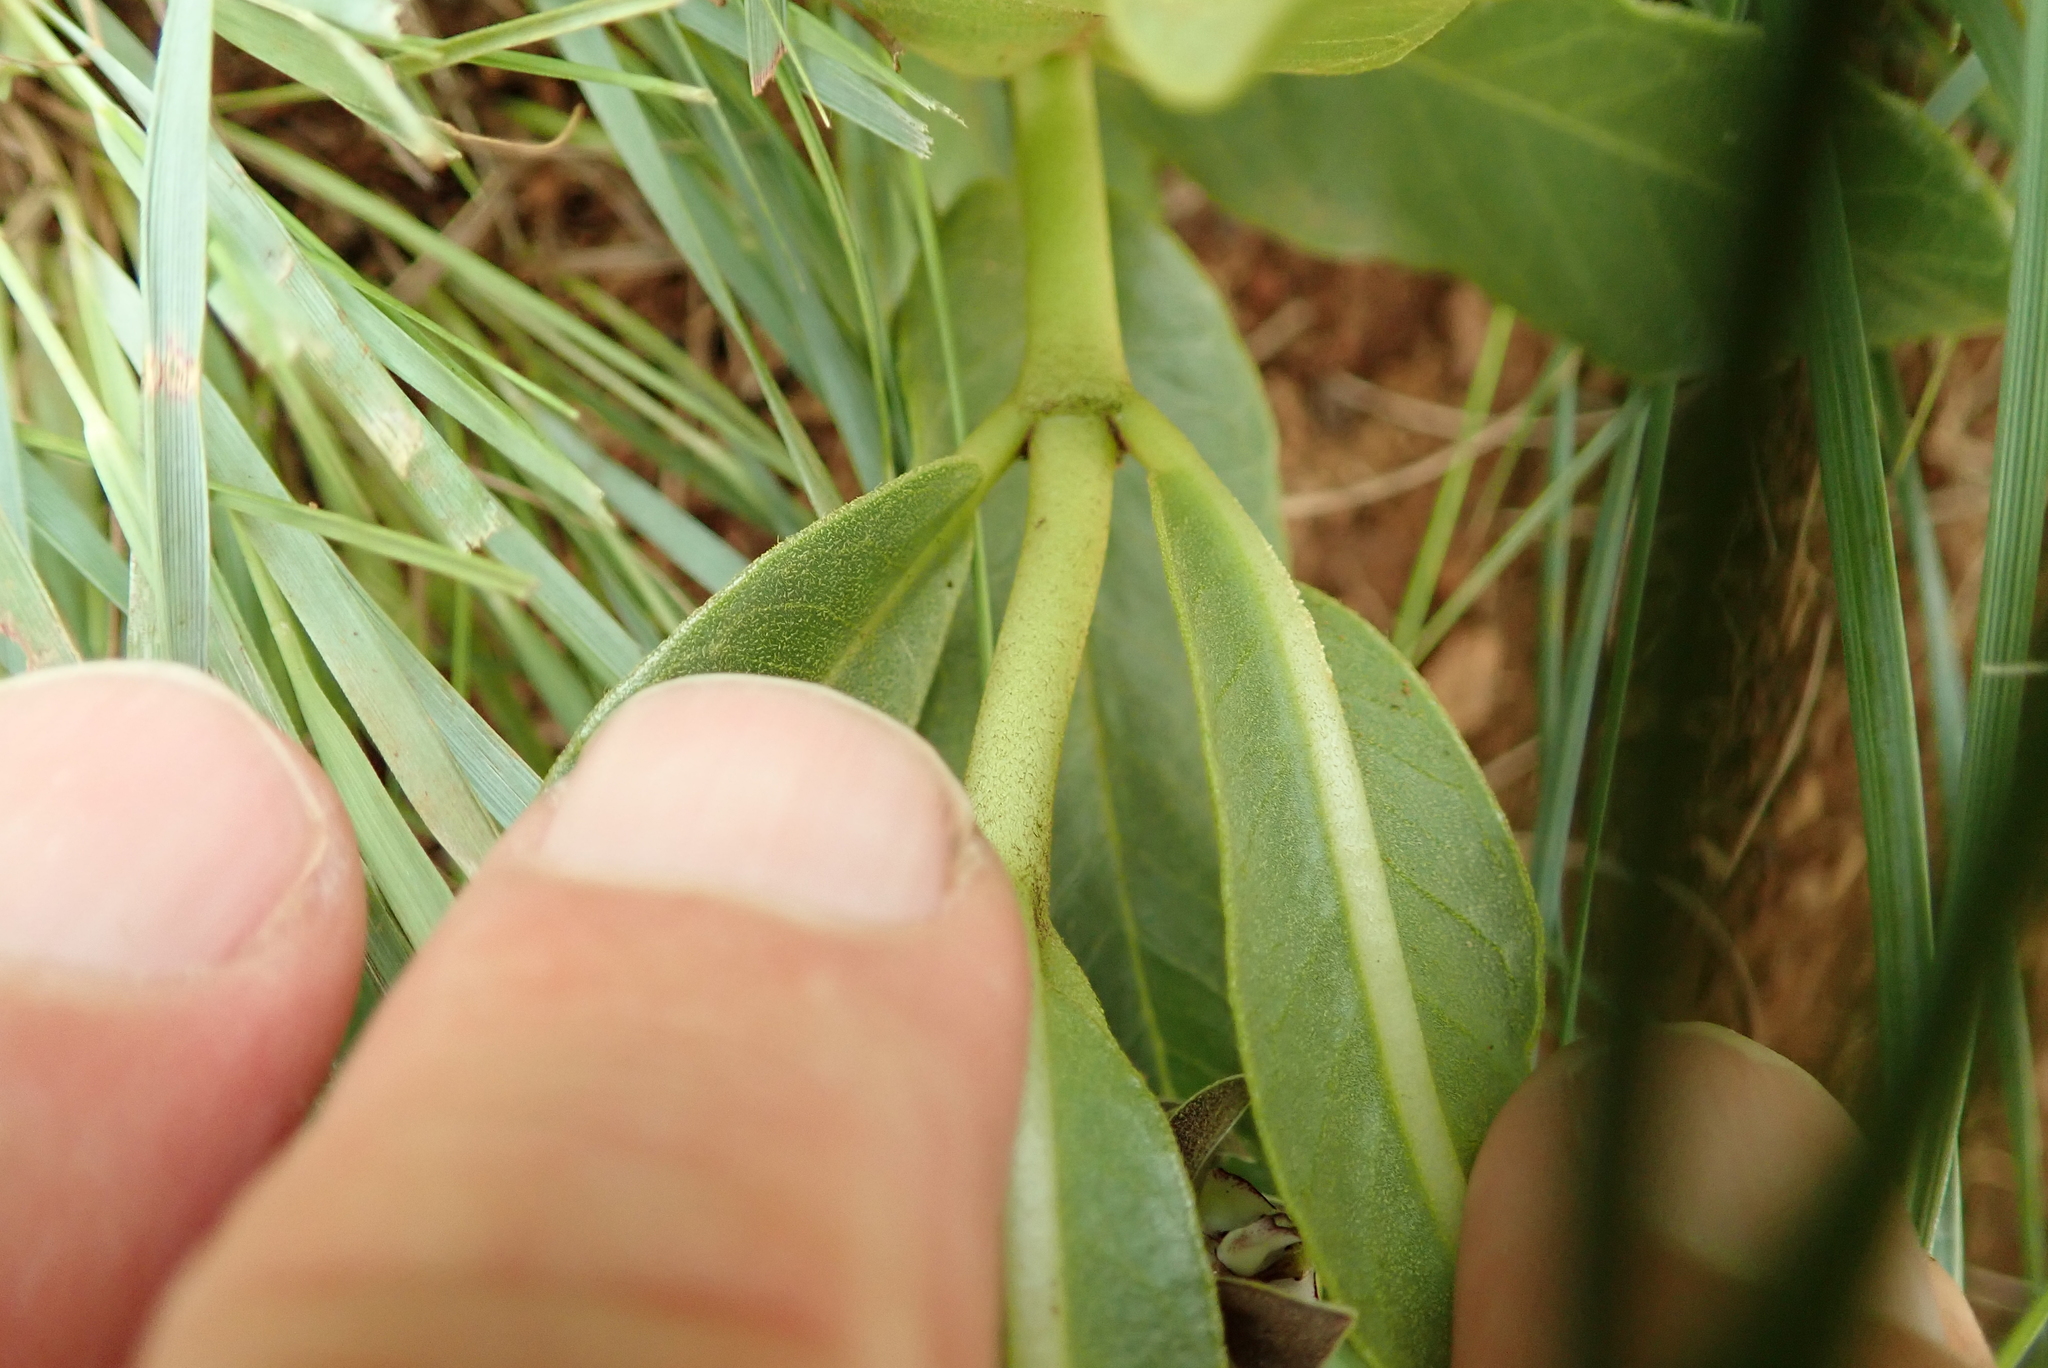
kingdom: Plantae
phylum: Tracheophyta
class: Magnoliopsida
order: Gentianales
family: Apocynaceae
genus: Asclepias
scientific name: Asclepias fulva
